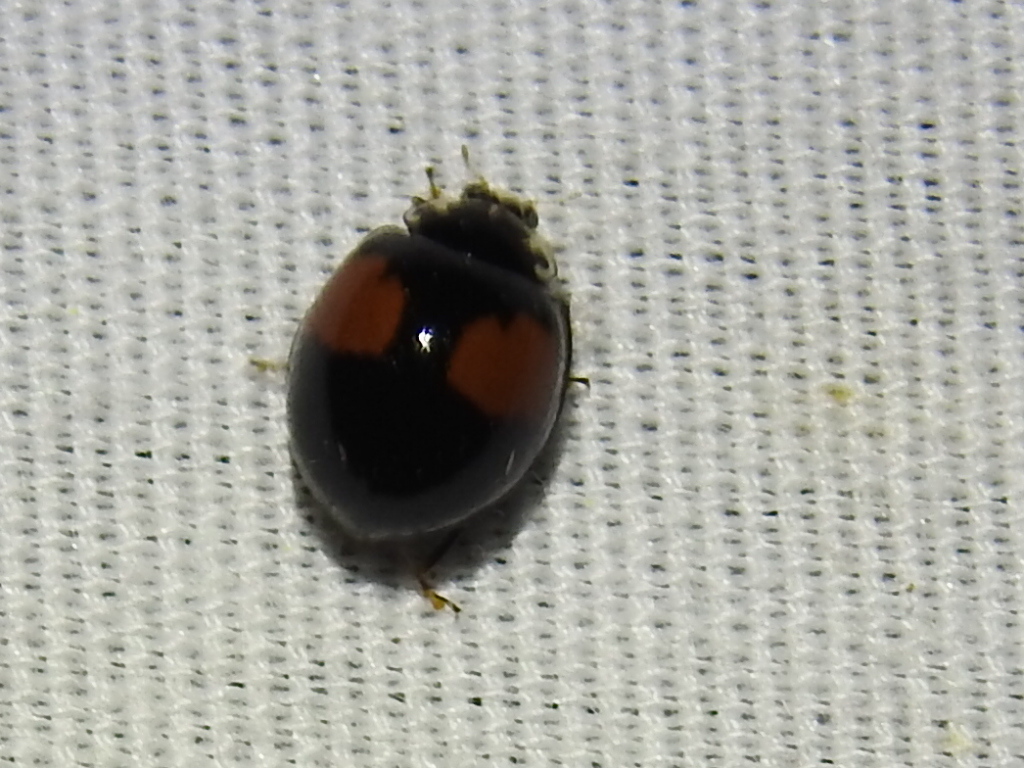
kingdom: Animalia
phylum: Arthropoda
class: Insecta
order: Coleoptera
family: Coccinellidae
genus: Olla
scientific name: Olla v-nigrum
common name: Ashy gray lady beetle
